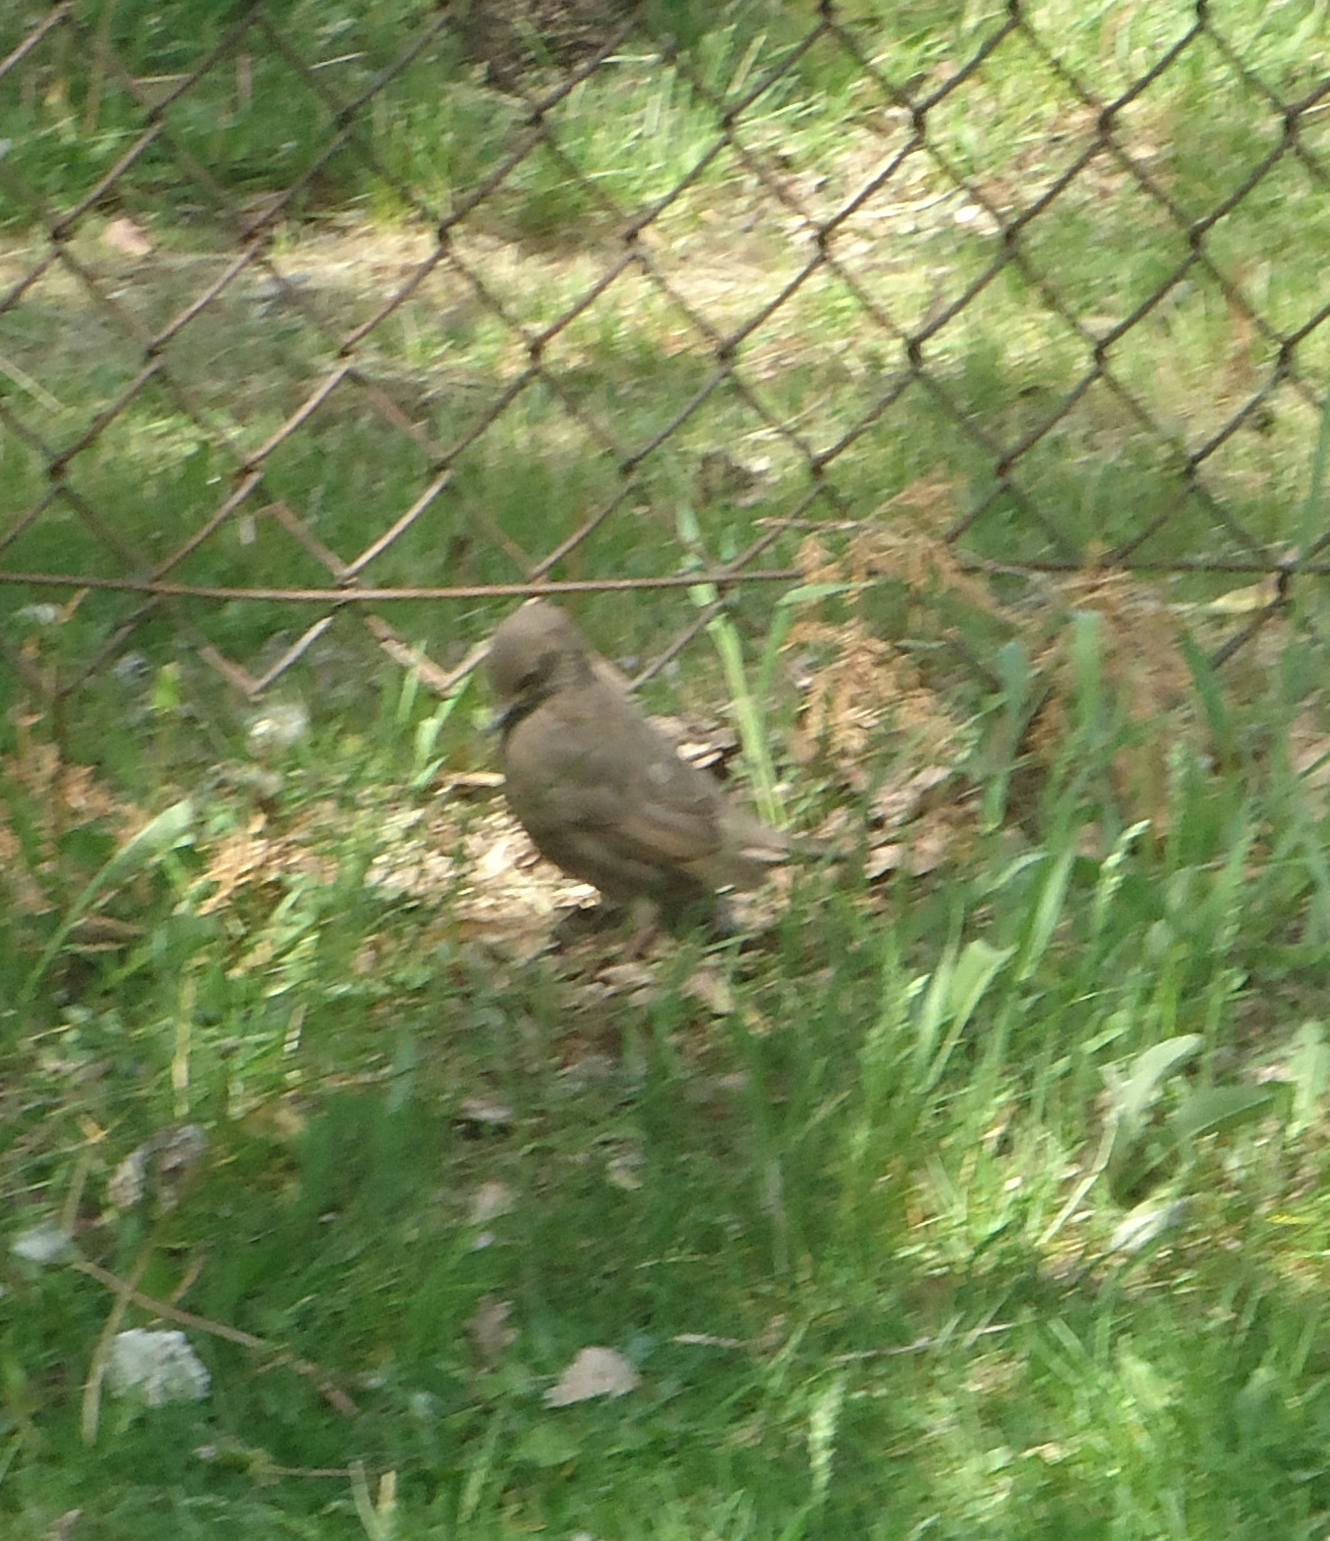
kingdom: Animalia
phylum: Chordata
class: Aves
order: Passeriformes
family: Sturnidae
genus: Sturnus
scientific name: Sturnus vulgaris
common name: Common starling
